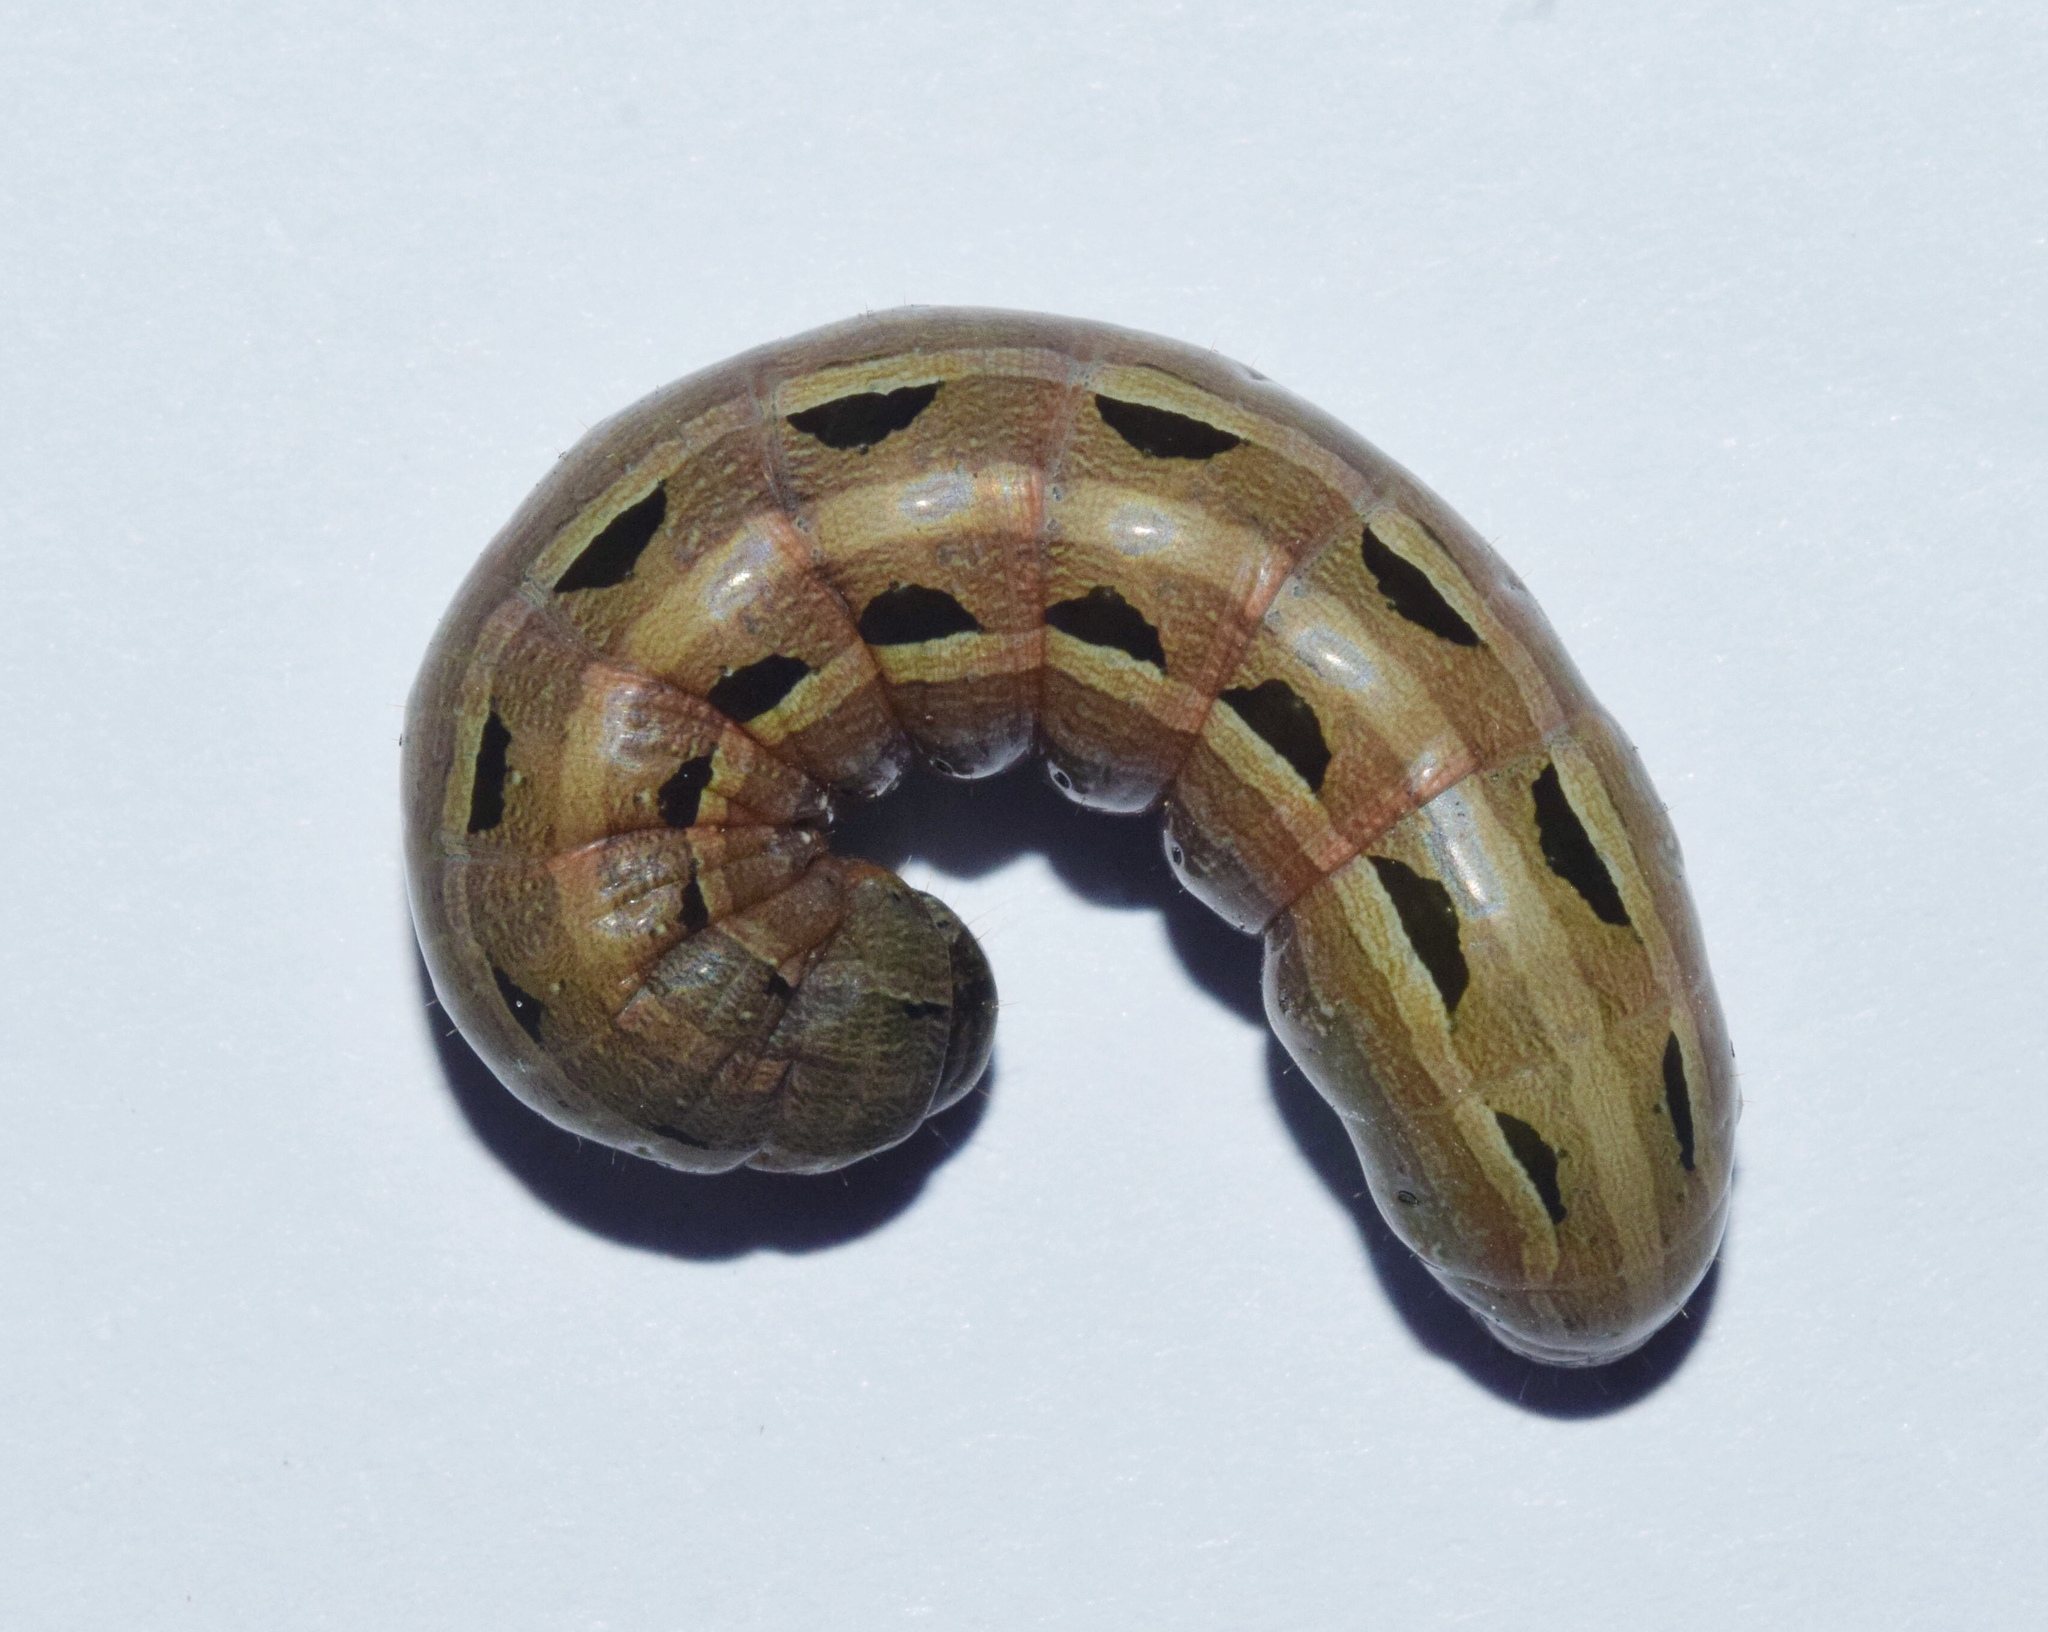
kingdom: Animalia
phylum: Arthropoda
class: Insecta
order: Lepidoptera
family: Noctuidae
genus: Spodoptera
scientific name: Spodoptera cilium
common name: Dark mottled willow
